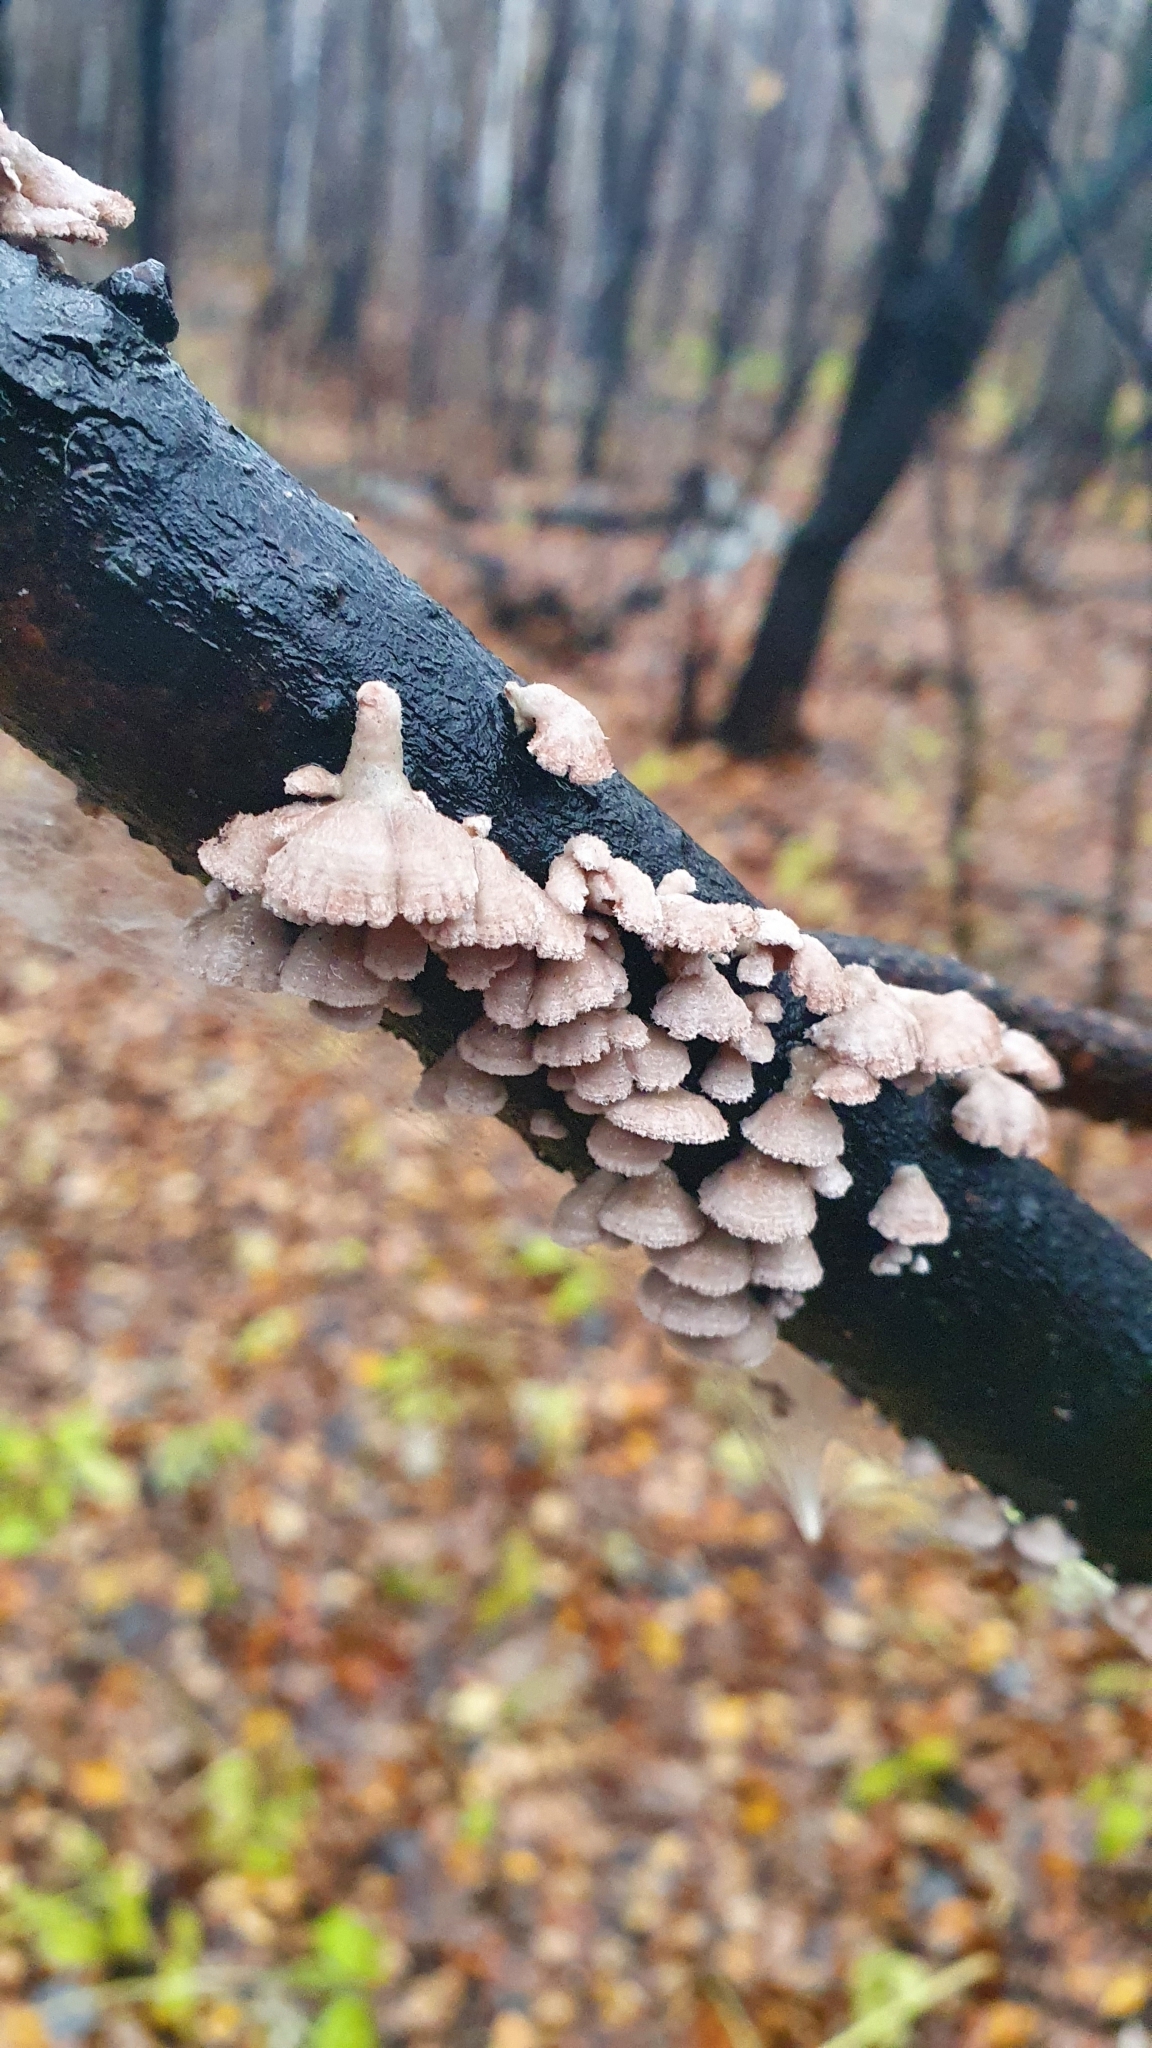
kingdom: Fungi
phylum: Basidiomycota
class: Agaricomycetes
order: Agaricales
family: Schizophyllaceae
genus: Schizophyllum
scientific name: Schizophyllum commune
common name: Common porecrust
